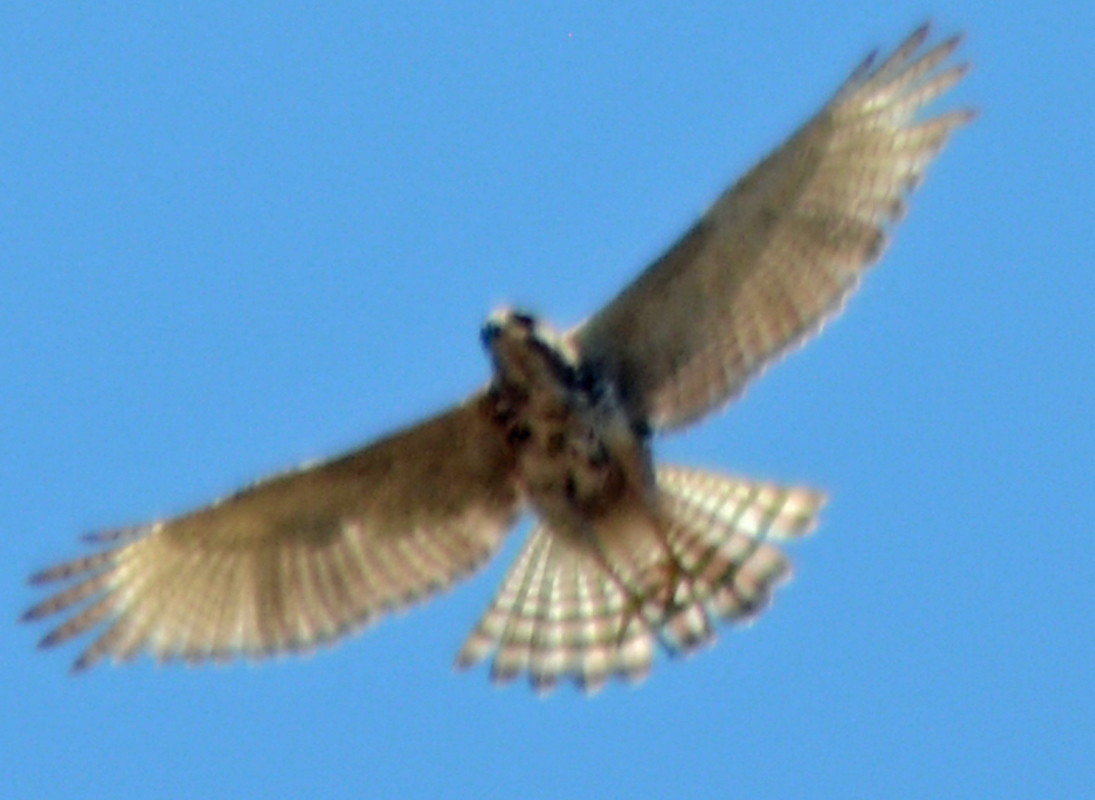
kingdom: Animalia
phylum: Chordata
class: Aves
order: Accipitriformes
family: Accipitridae
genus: Buteo
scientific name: Buteo nitidus
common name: Grey-lined hawk
